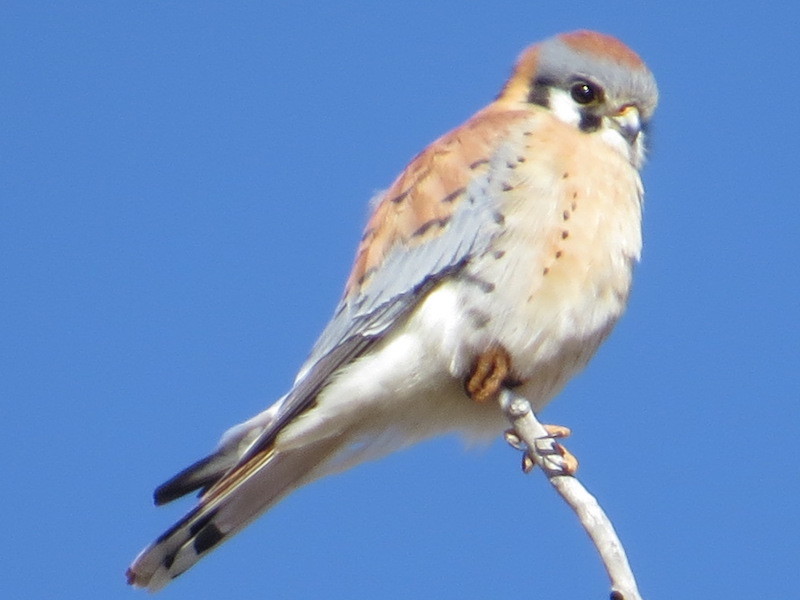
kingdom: Animalia
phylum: Chordata
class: Aves
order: Falconiformes
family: Falconidae
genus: Falco
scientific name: Falco sparverius
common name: American kestrel
